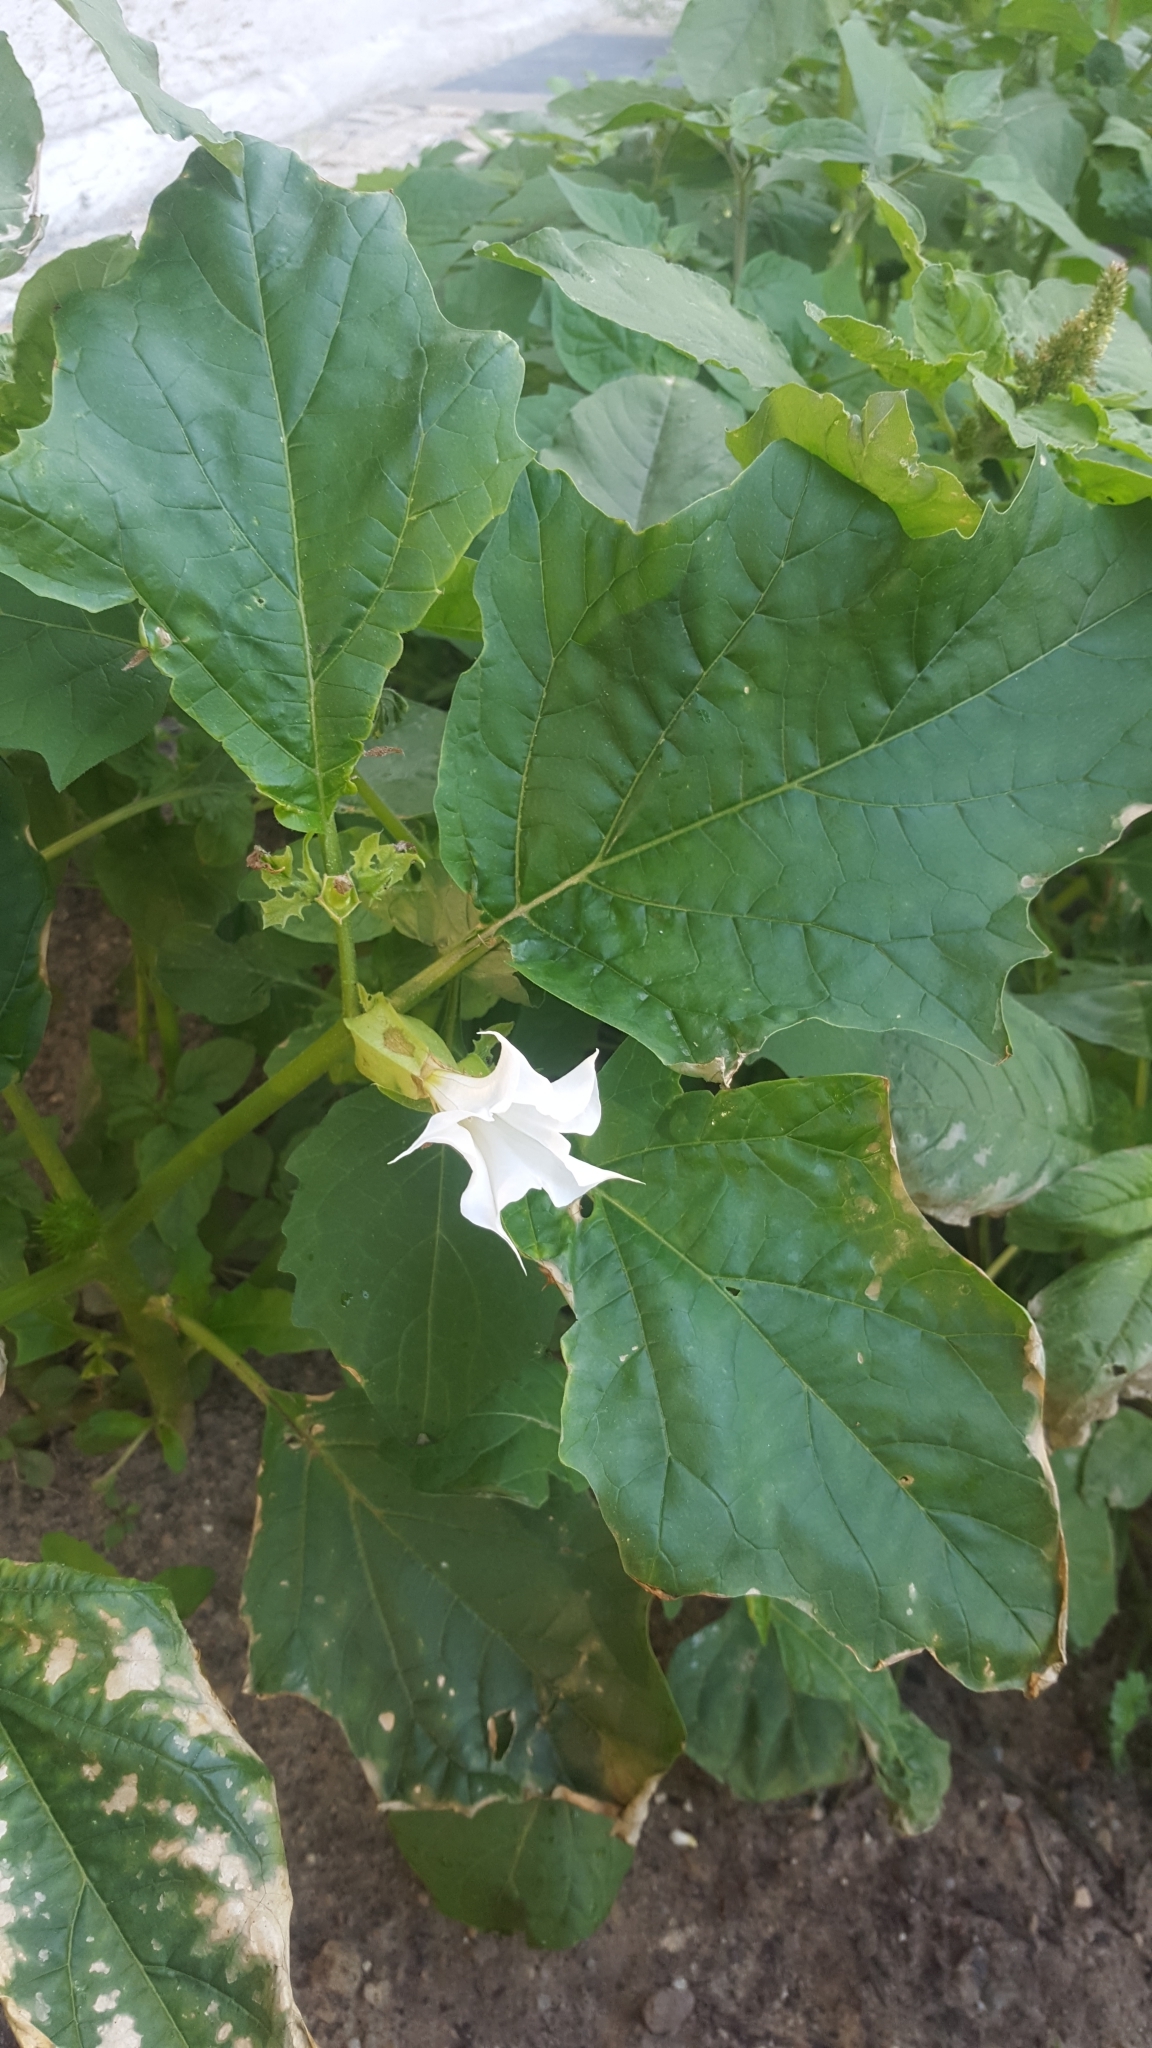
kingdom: Plantae
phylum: Tracheophyta
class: Magnoliopsida
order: Solanales
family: Solanaceae
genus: Datura
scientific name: Datura stramonium
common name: Thorn-apple
